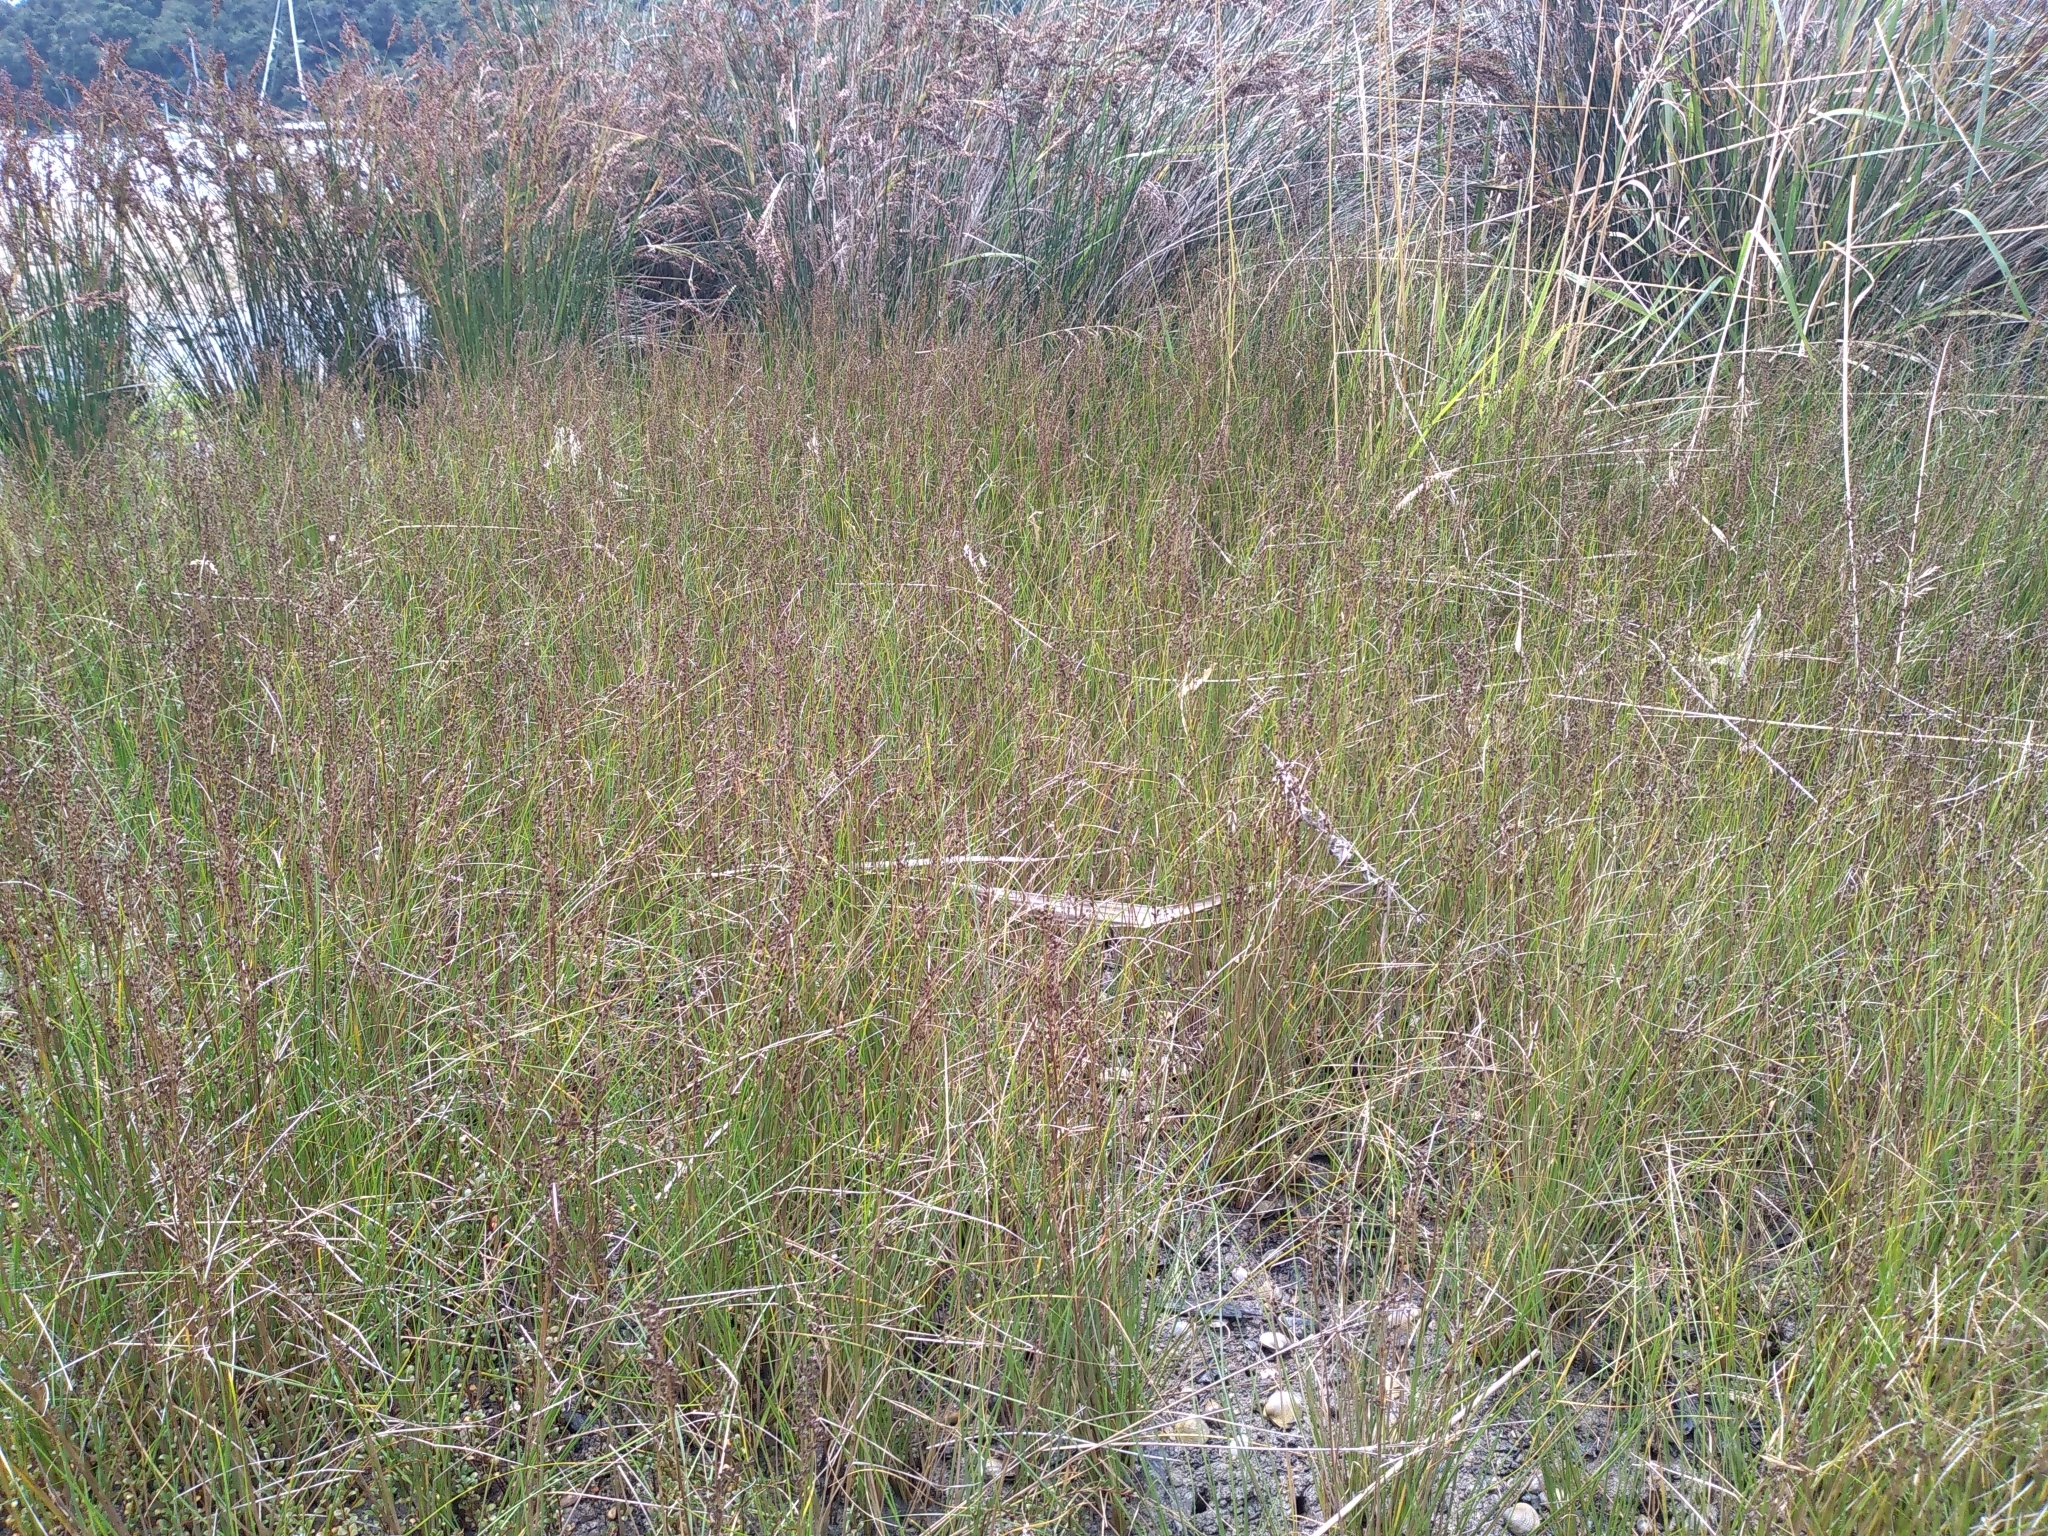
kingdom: Plantae
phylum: Tracheophyta
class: Liliopsida
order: Poales
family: Juncaceae
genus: Juncus
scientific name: Juncus gerardi
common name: Saltmarsh rush
